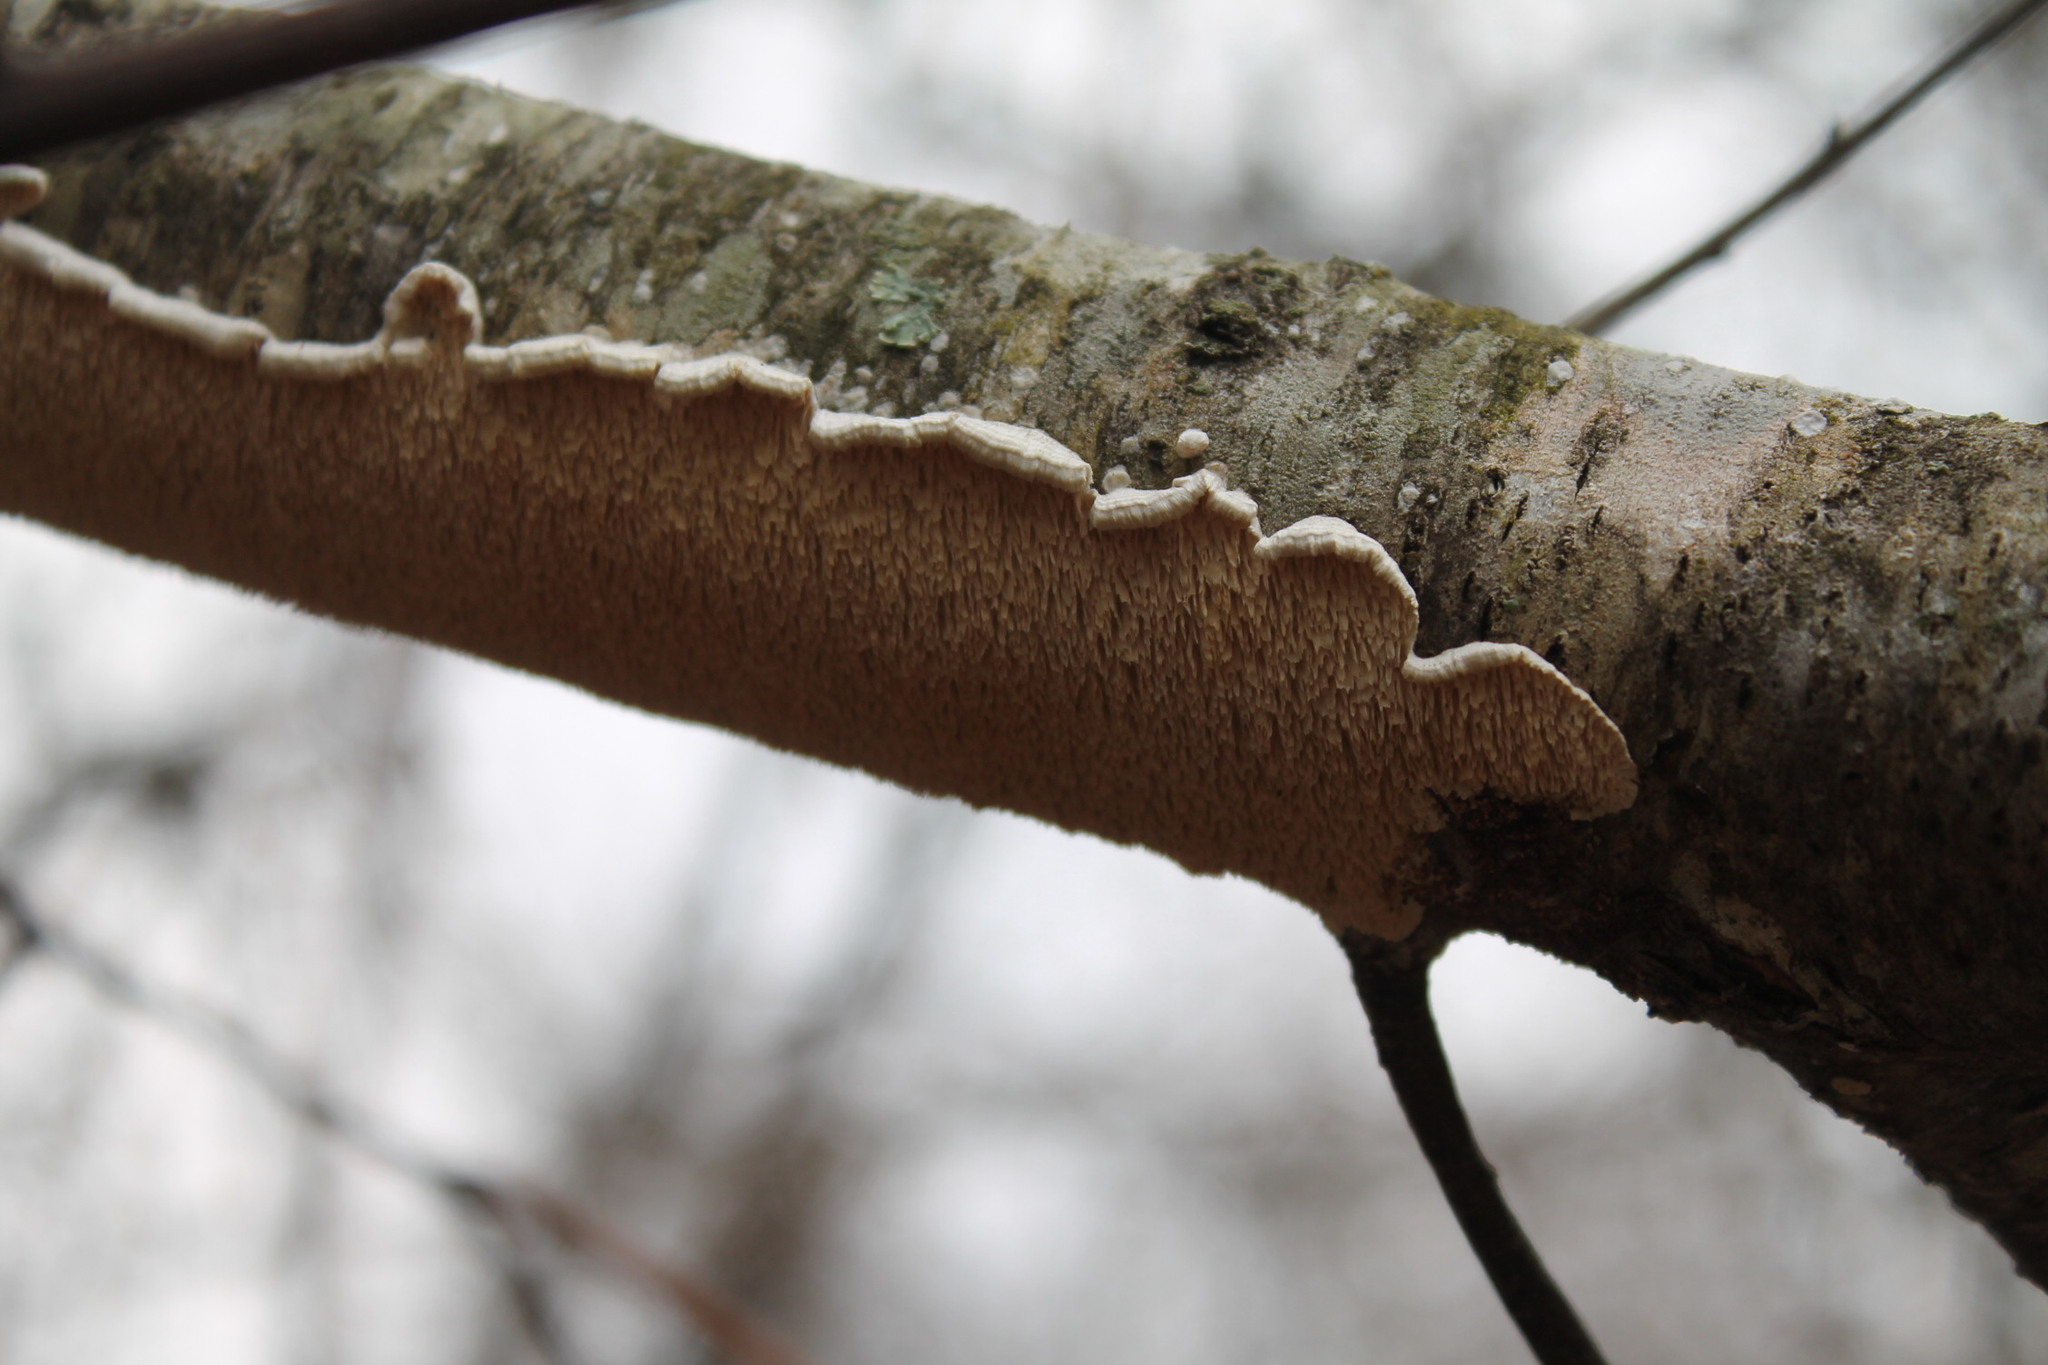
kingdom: Fungi
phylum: Basidiomycota
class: Agaricomycetes
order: Polyporales
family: Irpicaceae
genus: Irpex
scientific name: Irpex lacteus
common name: Milk-white toothed polypore
